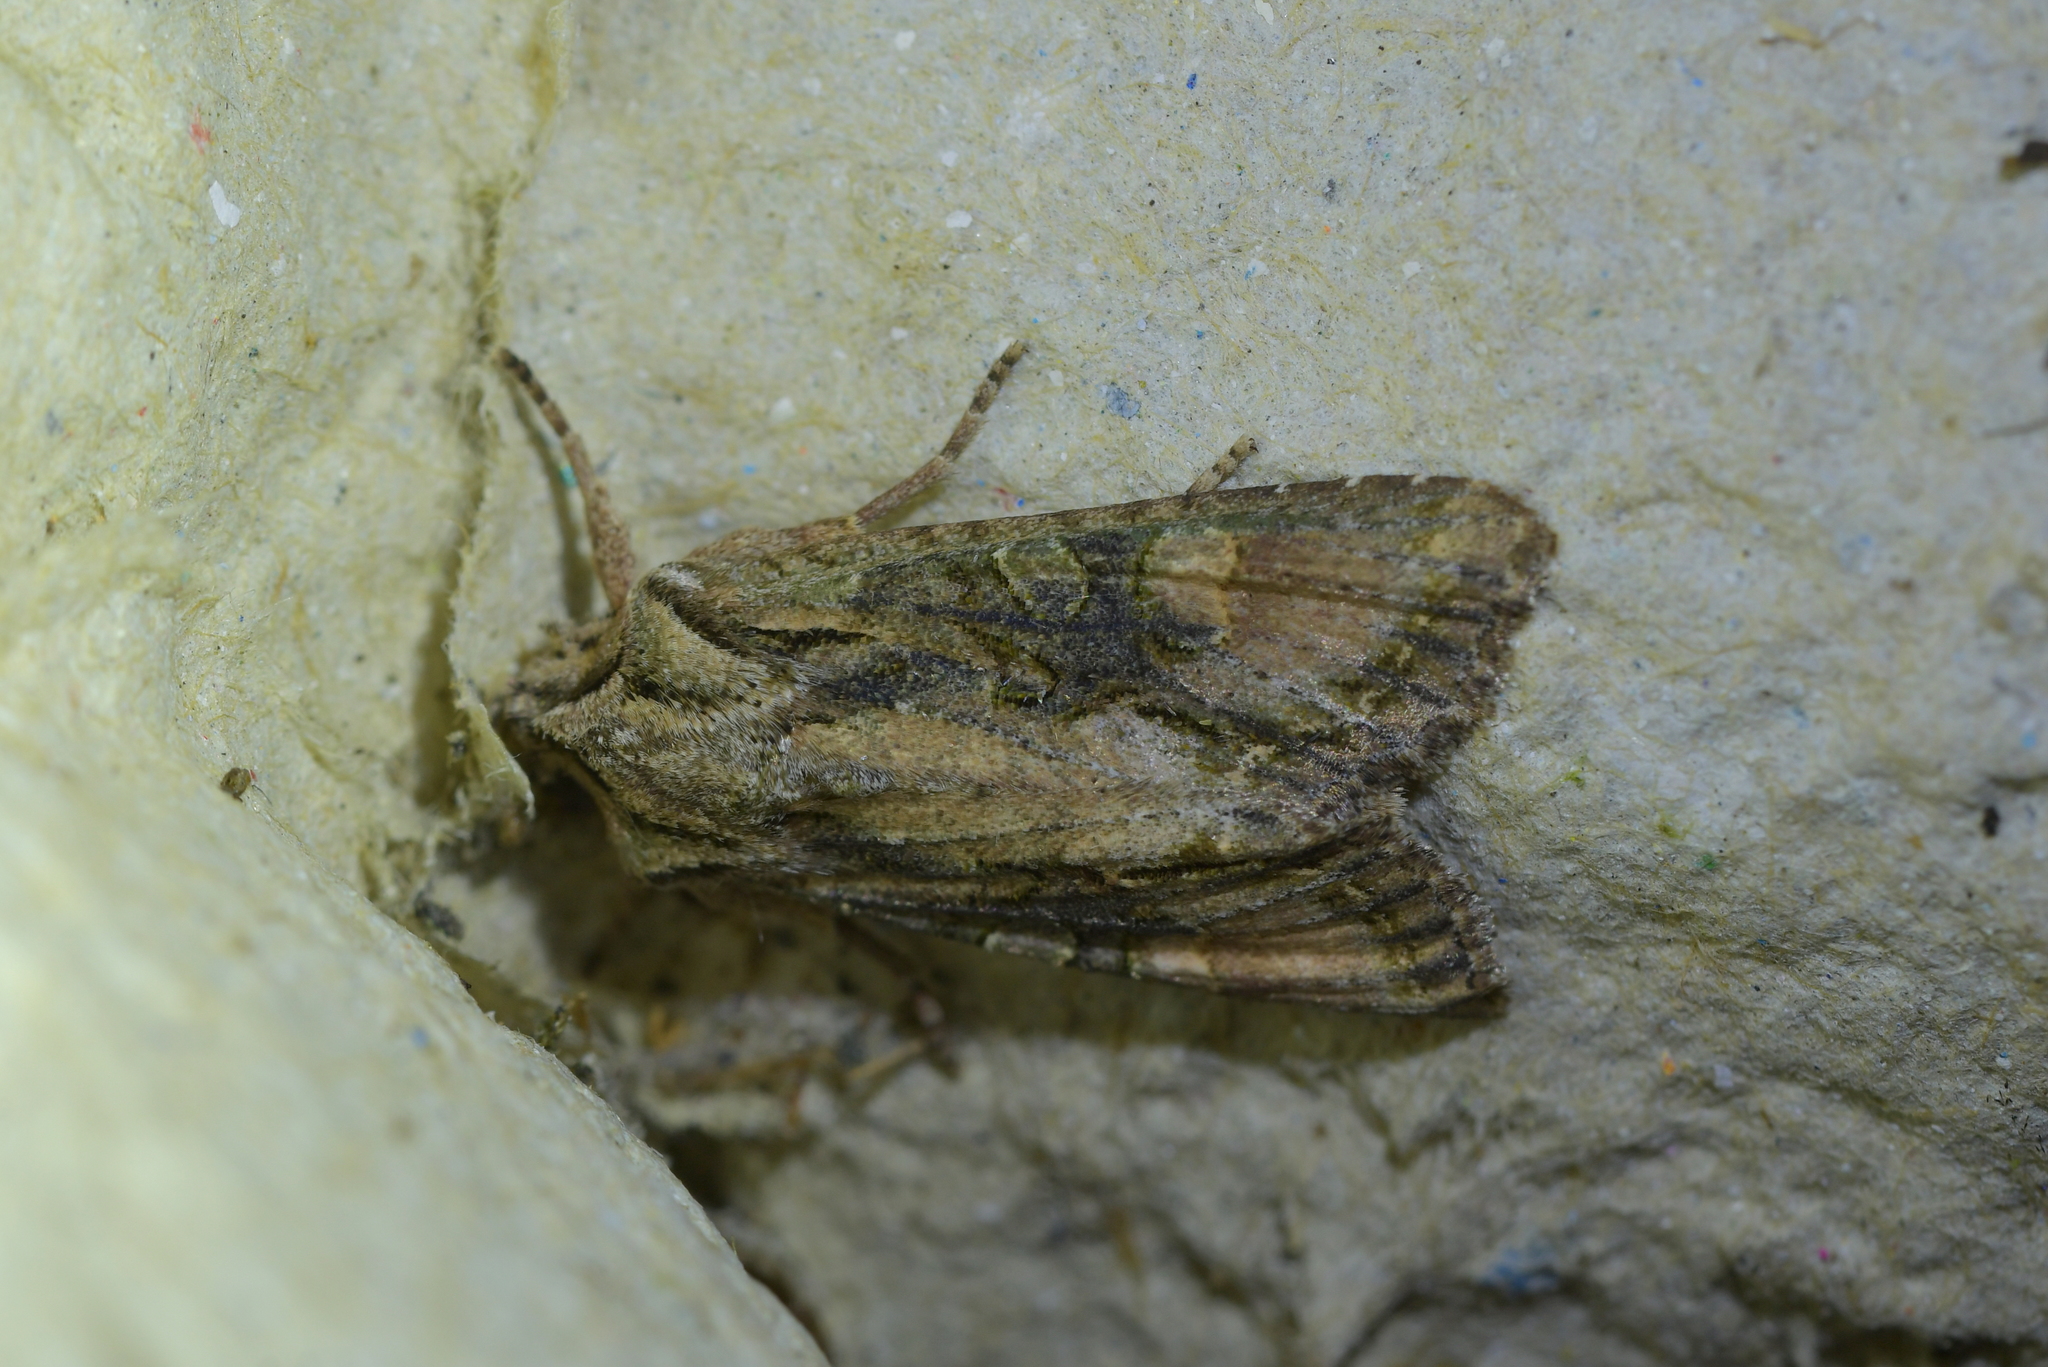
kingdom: Animalia
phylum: Arthropoda
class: Insecta
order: Lepidoptera
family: Noctuidae
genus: Ichneutica
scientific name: Ichneutica mutans
